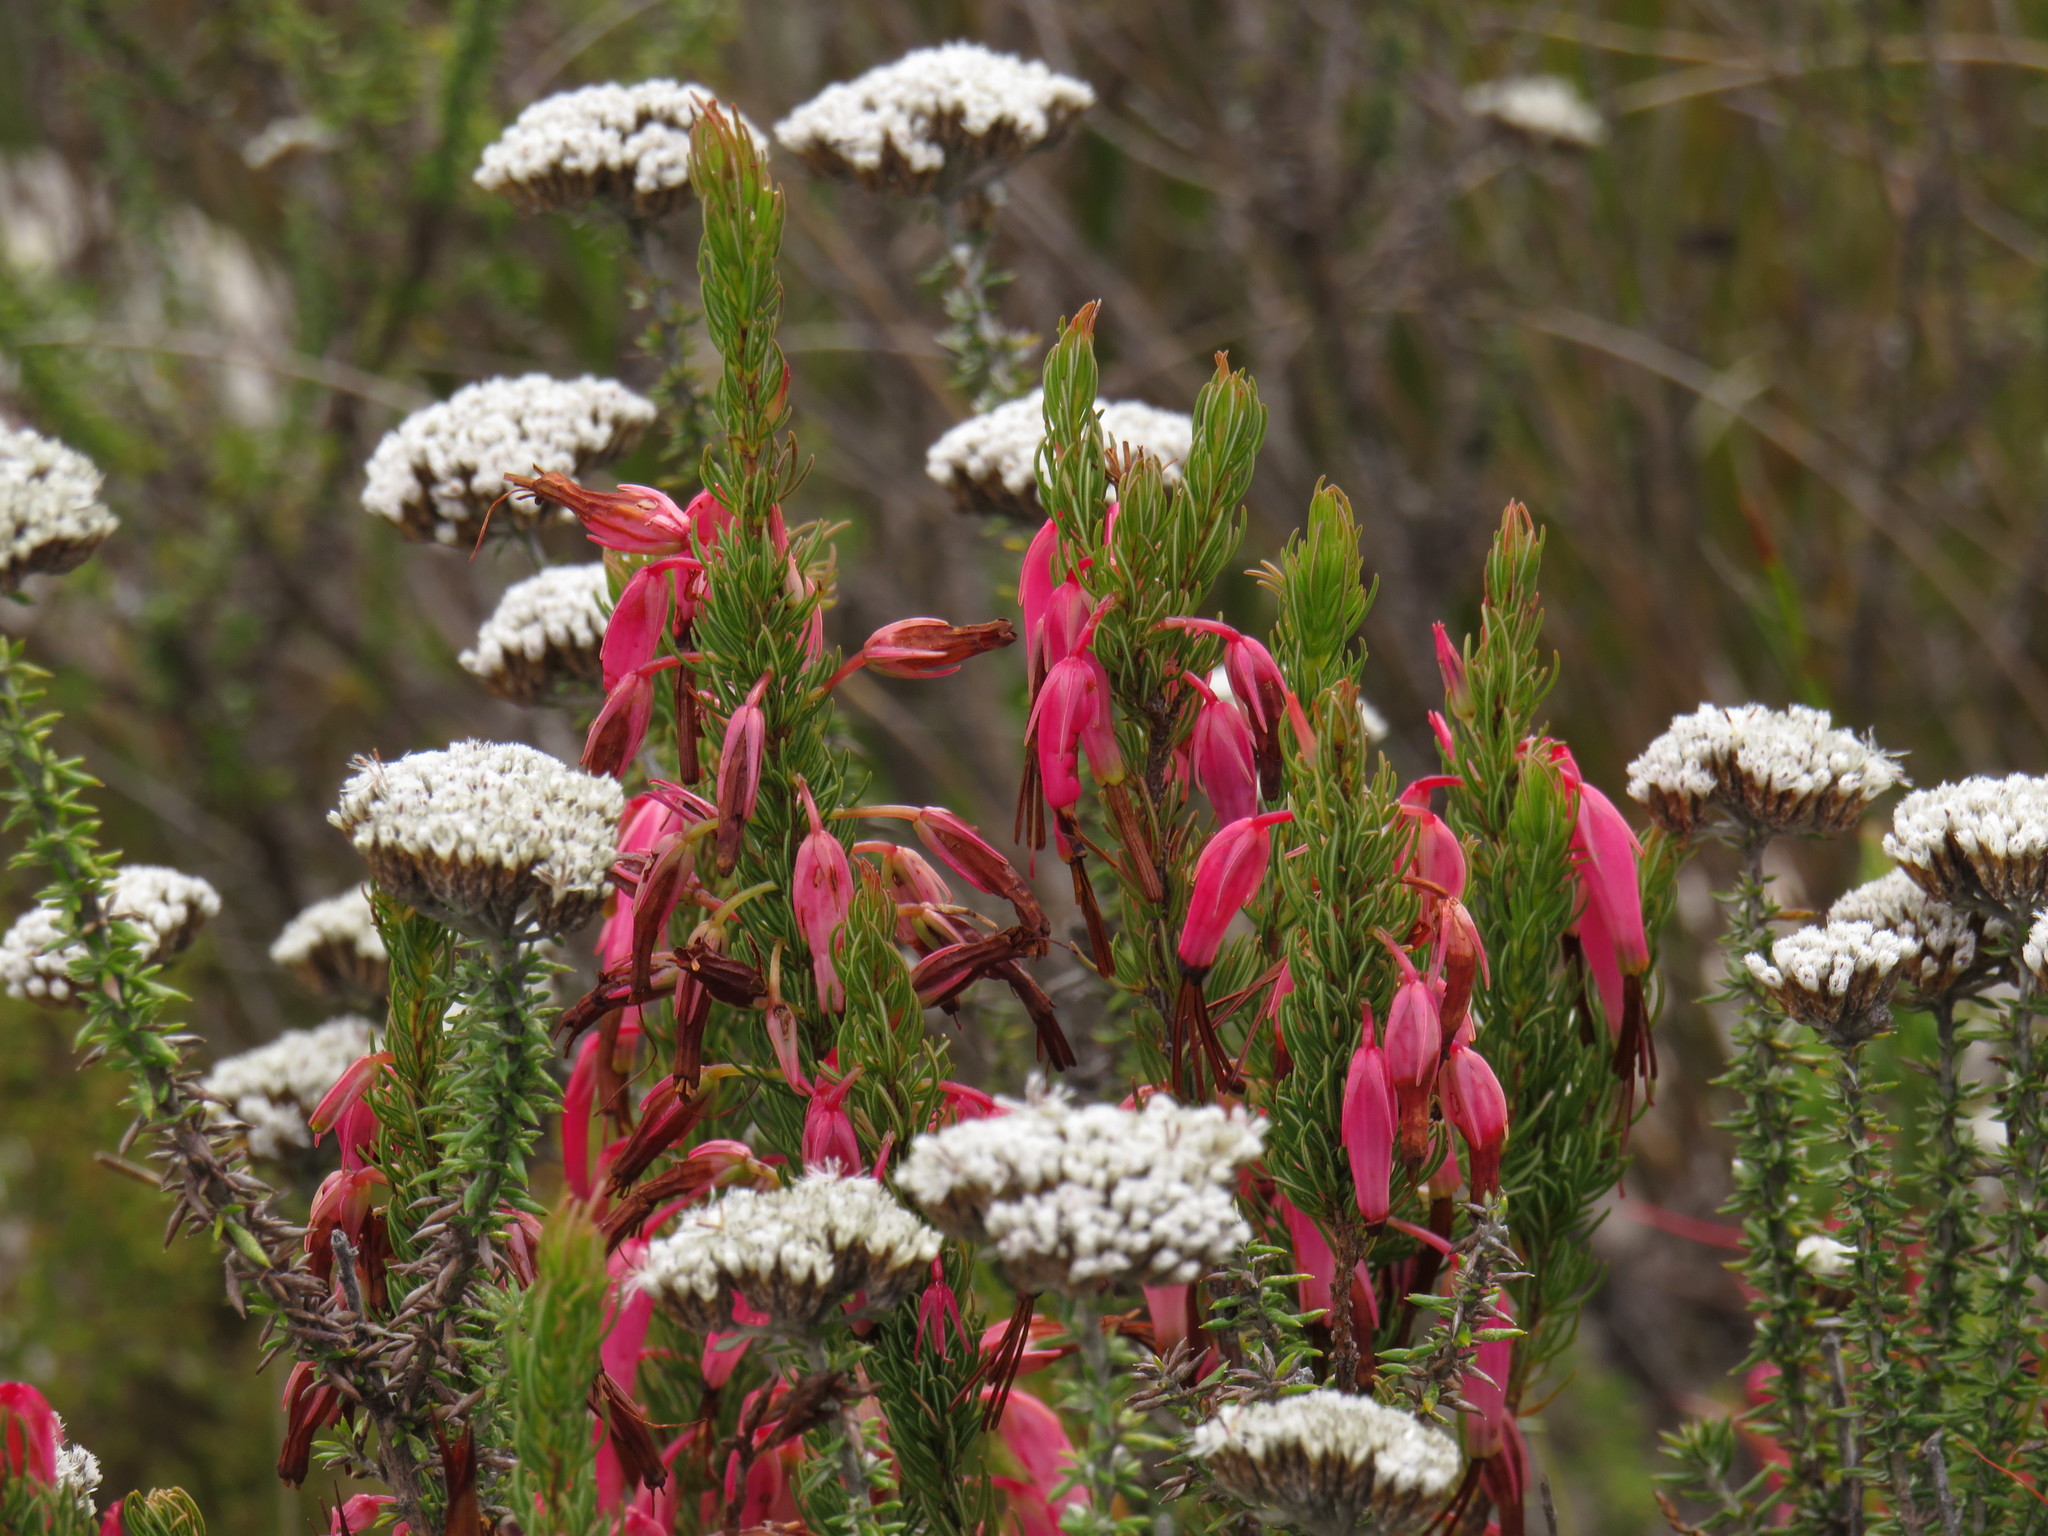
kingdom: Plantae
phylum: Tracheophyta
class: Magnoliopsida
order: Ericales
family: Ericaceae
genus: Erica
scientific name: Erica plukenetii
